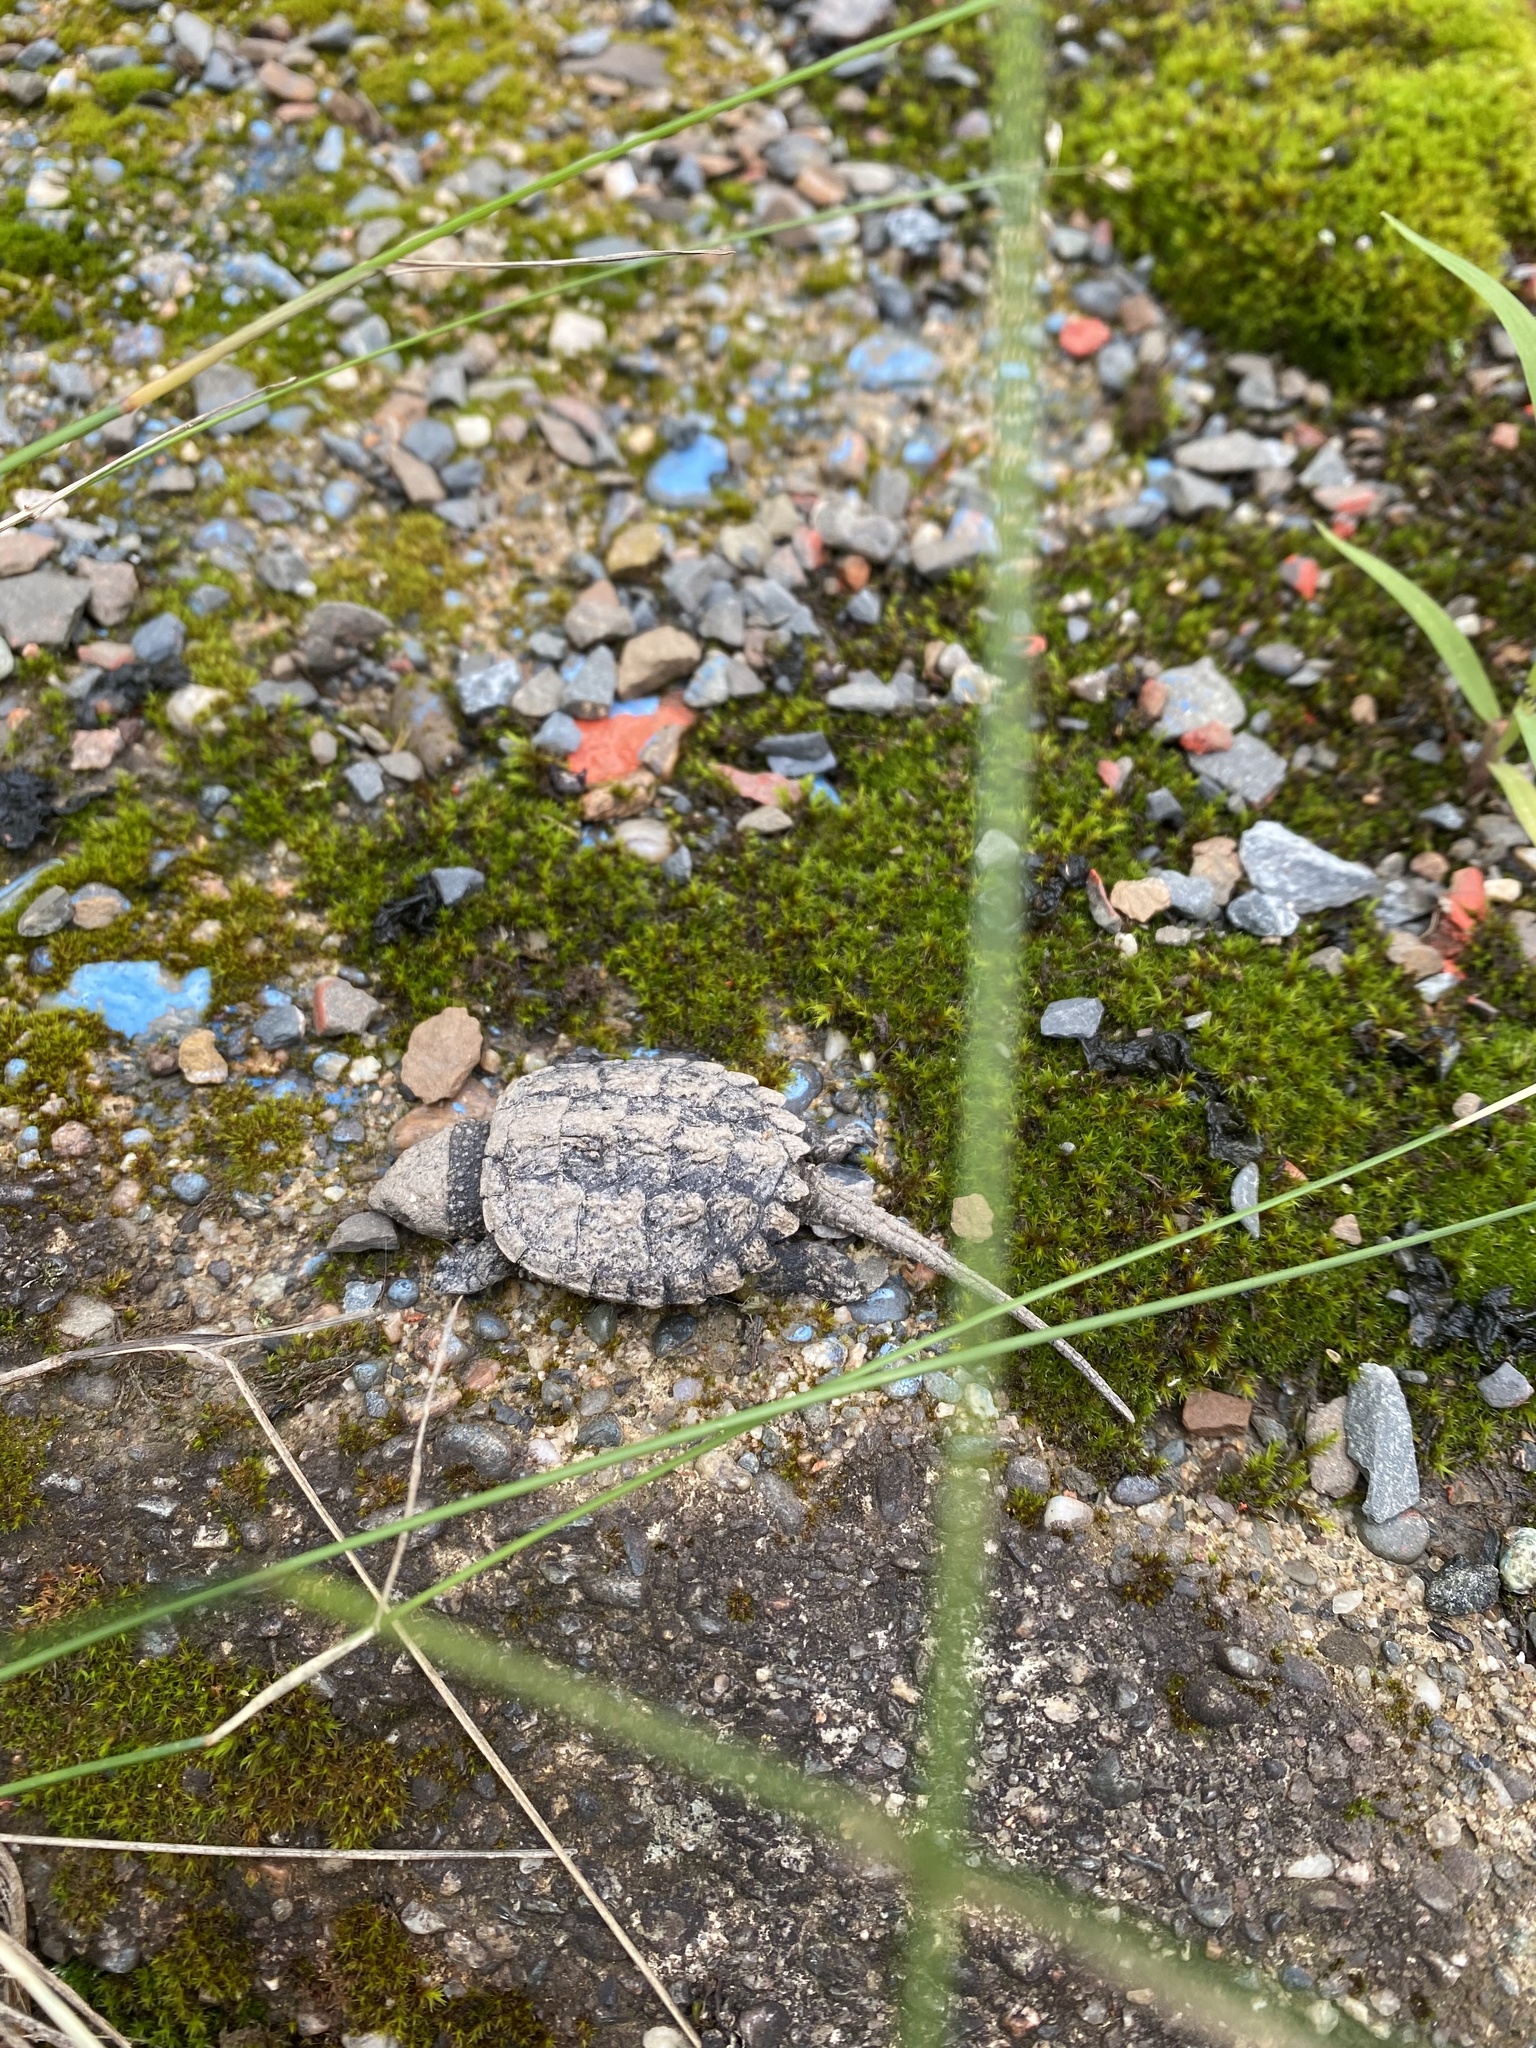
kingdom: Animalia
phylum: Chordata
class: Testudines
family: Chelydridae
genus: Chelydra
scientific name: Chelydra serpentina
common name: Common snapping turtle
